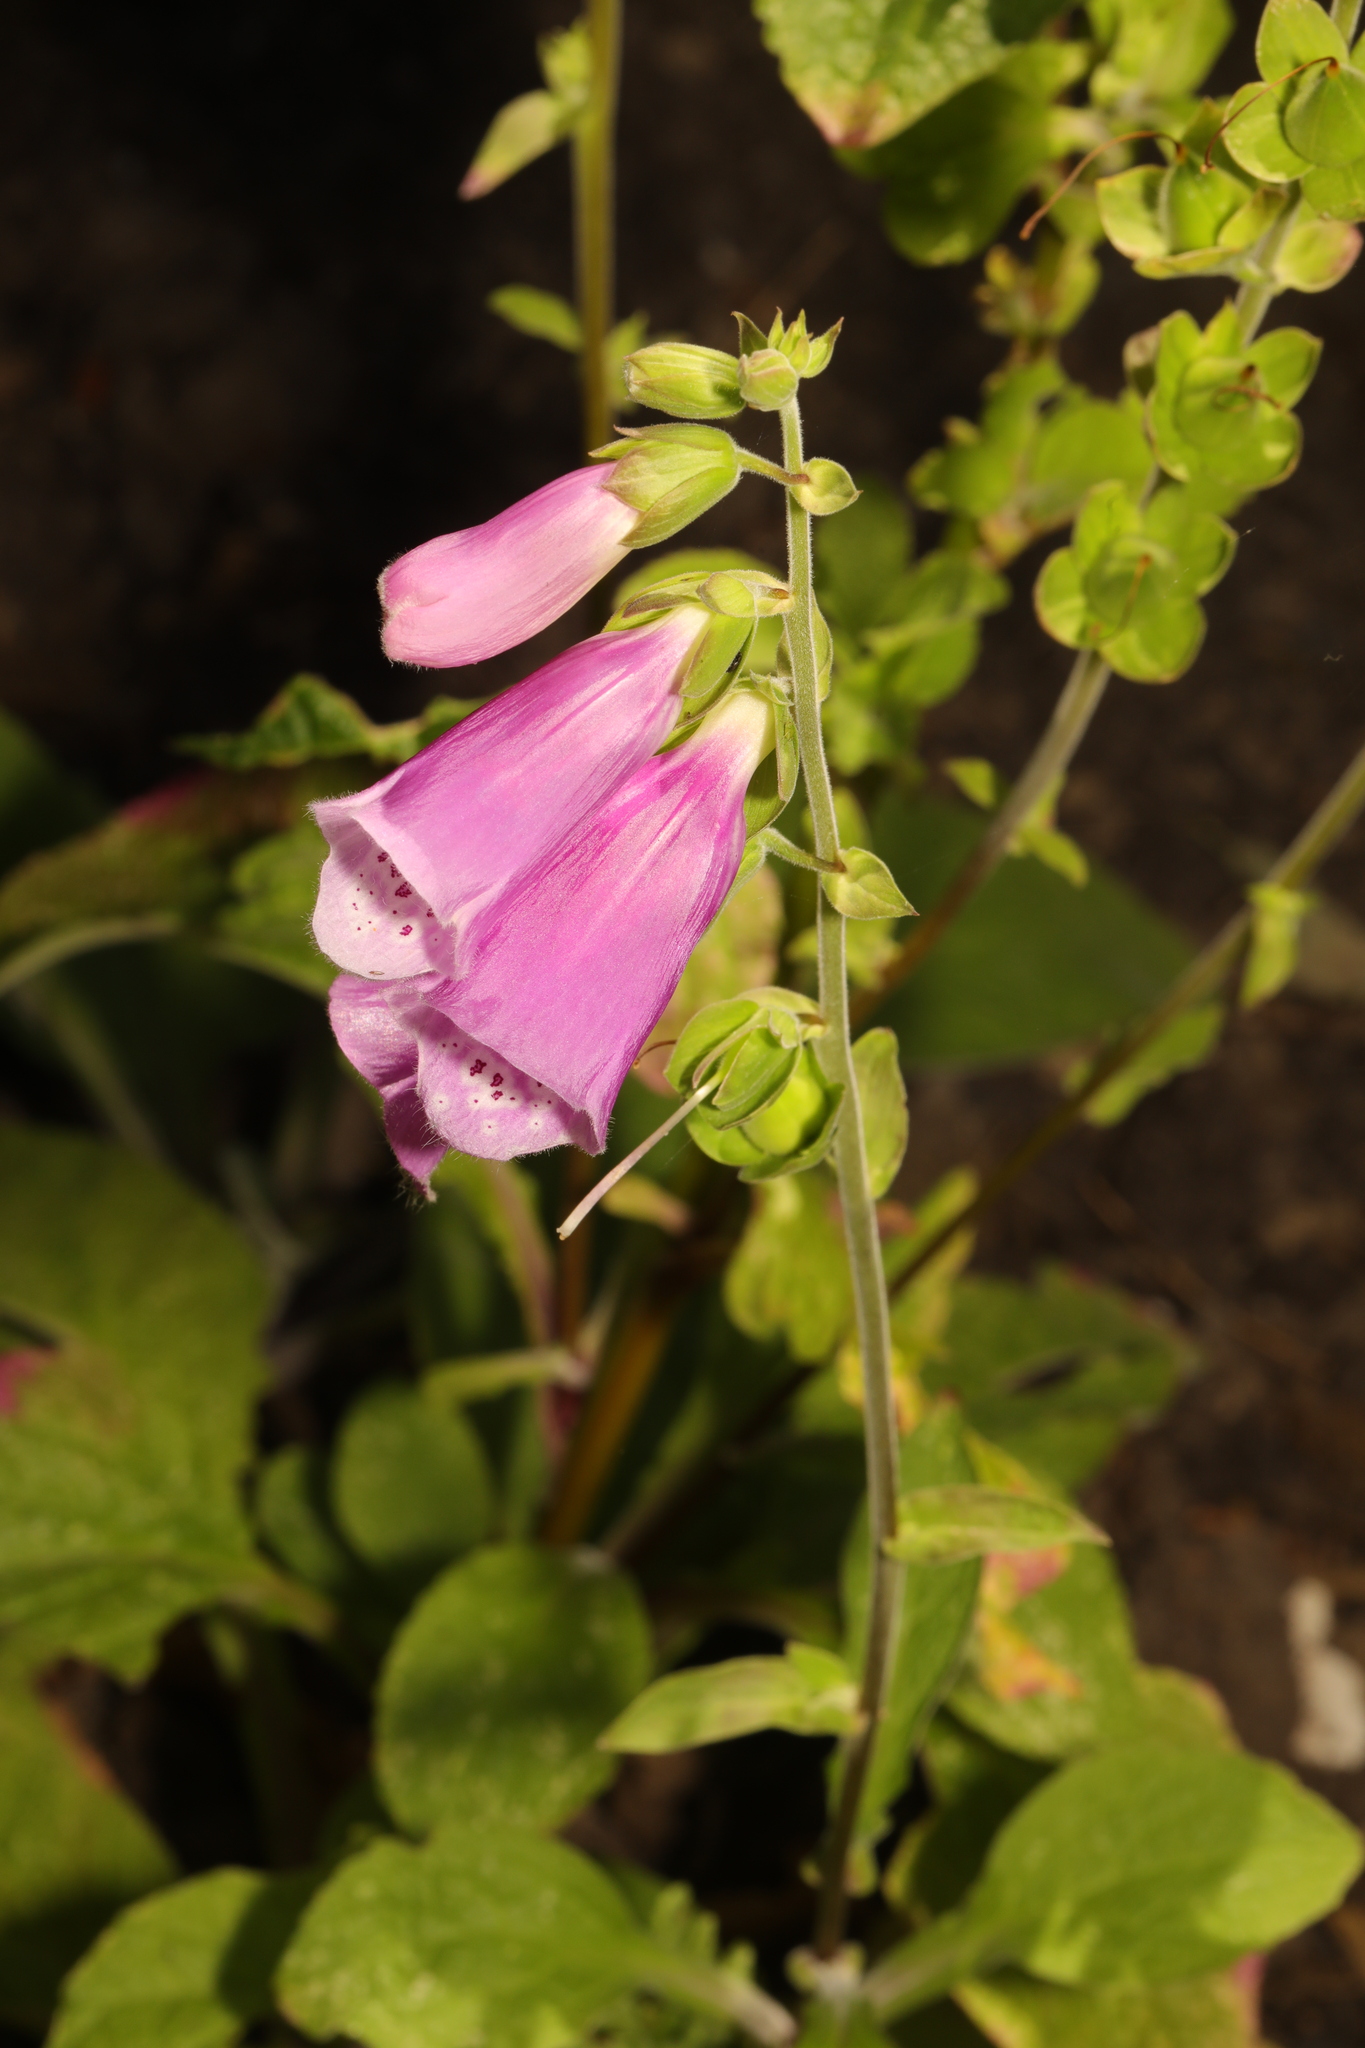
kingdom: Plantae
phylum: Tracheophyta
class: Magnoliopsida
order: Lamiales
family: Plantaginaceae
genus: Digitalis
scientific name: Digitalis purpurea
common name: Foxglove
